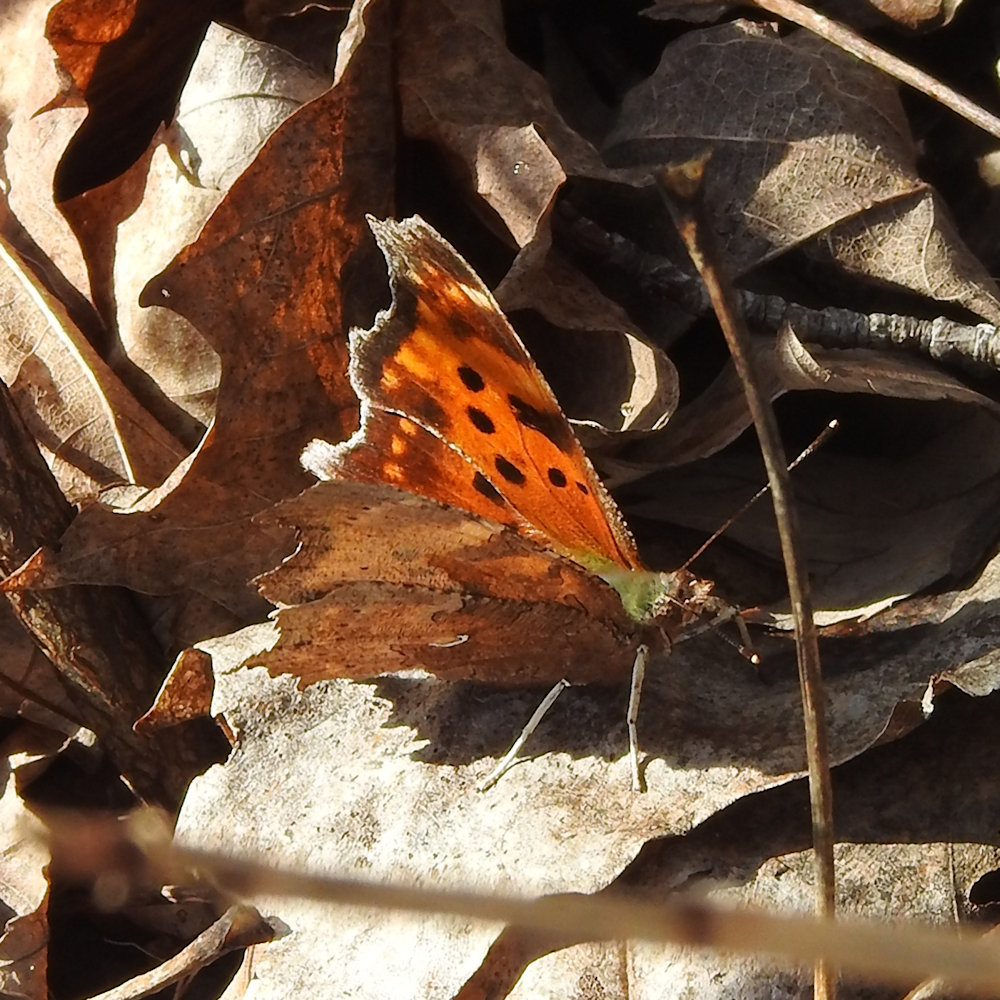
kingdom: Animalia
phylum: Arthropoda
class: Insecta
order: Lepidoptera
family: Nymphalidae
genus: Polygonia
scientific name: Polygonia comma
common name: Eastern comma
